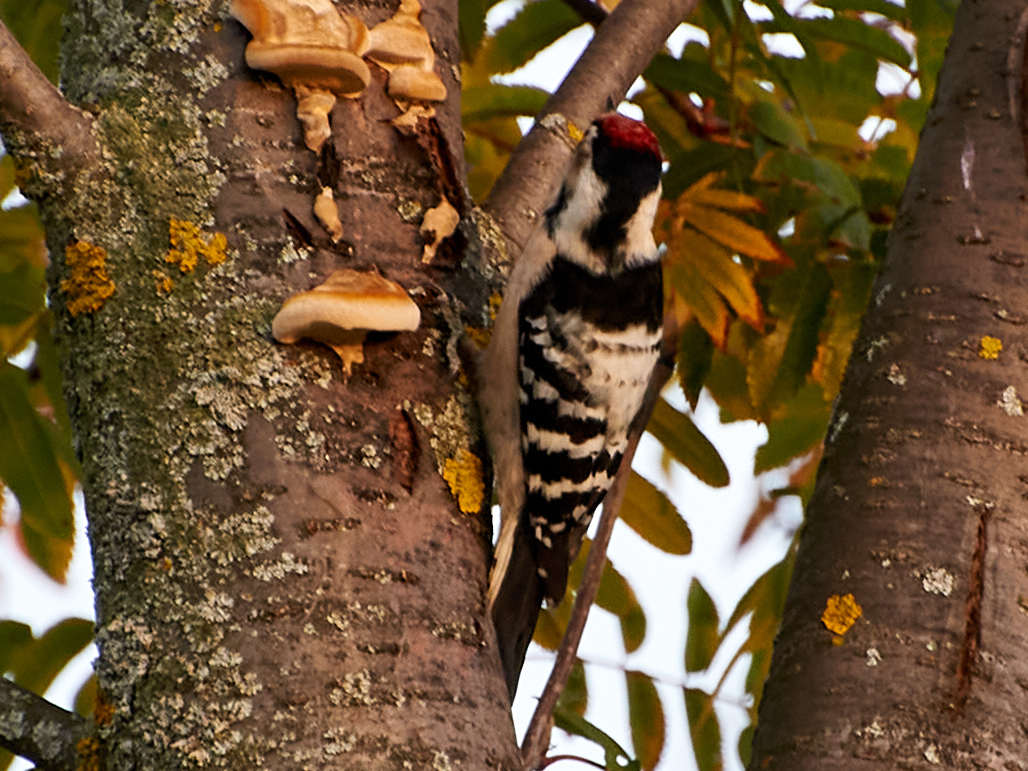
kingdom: Animalia
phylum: Chordata
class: Aves
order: Piciformes
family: Picidae
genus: Dryobates
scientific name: Dryobates minor
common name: Lesser spotted woodpecker
